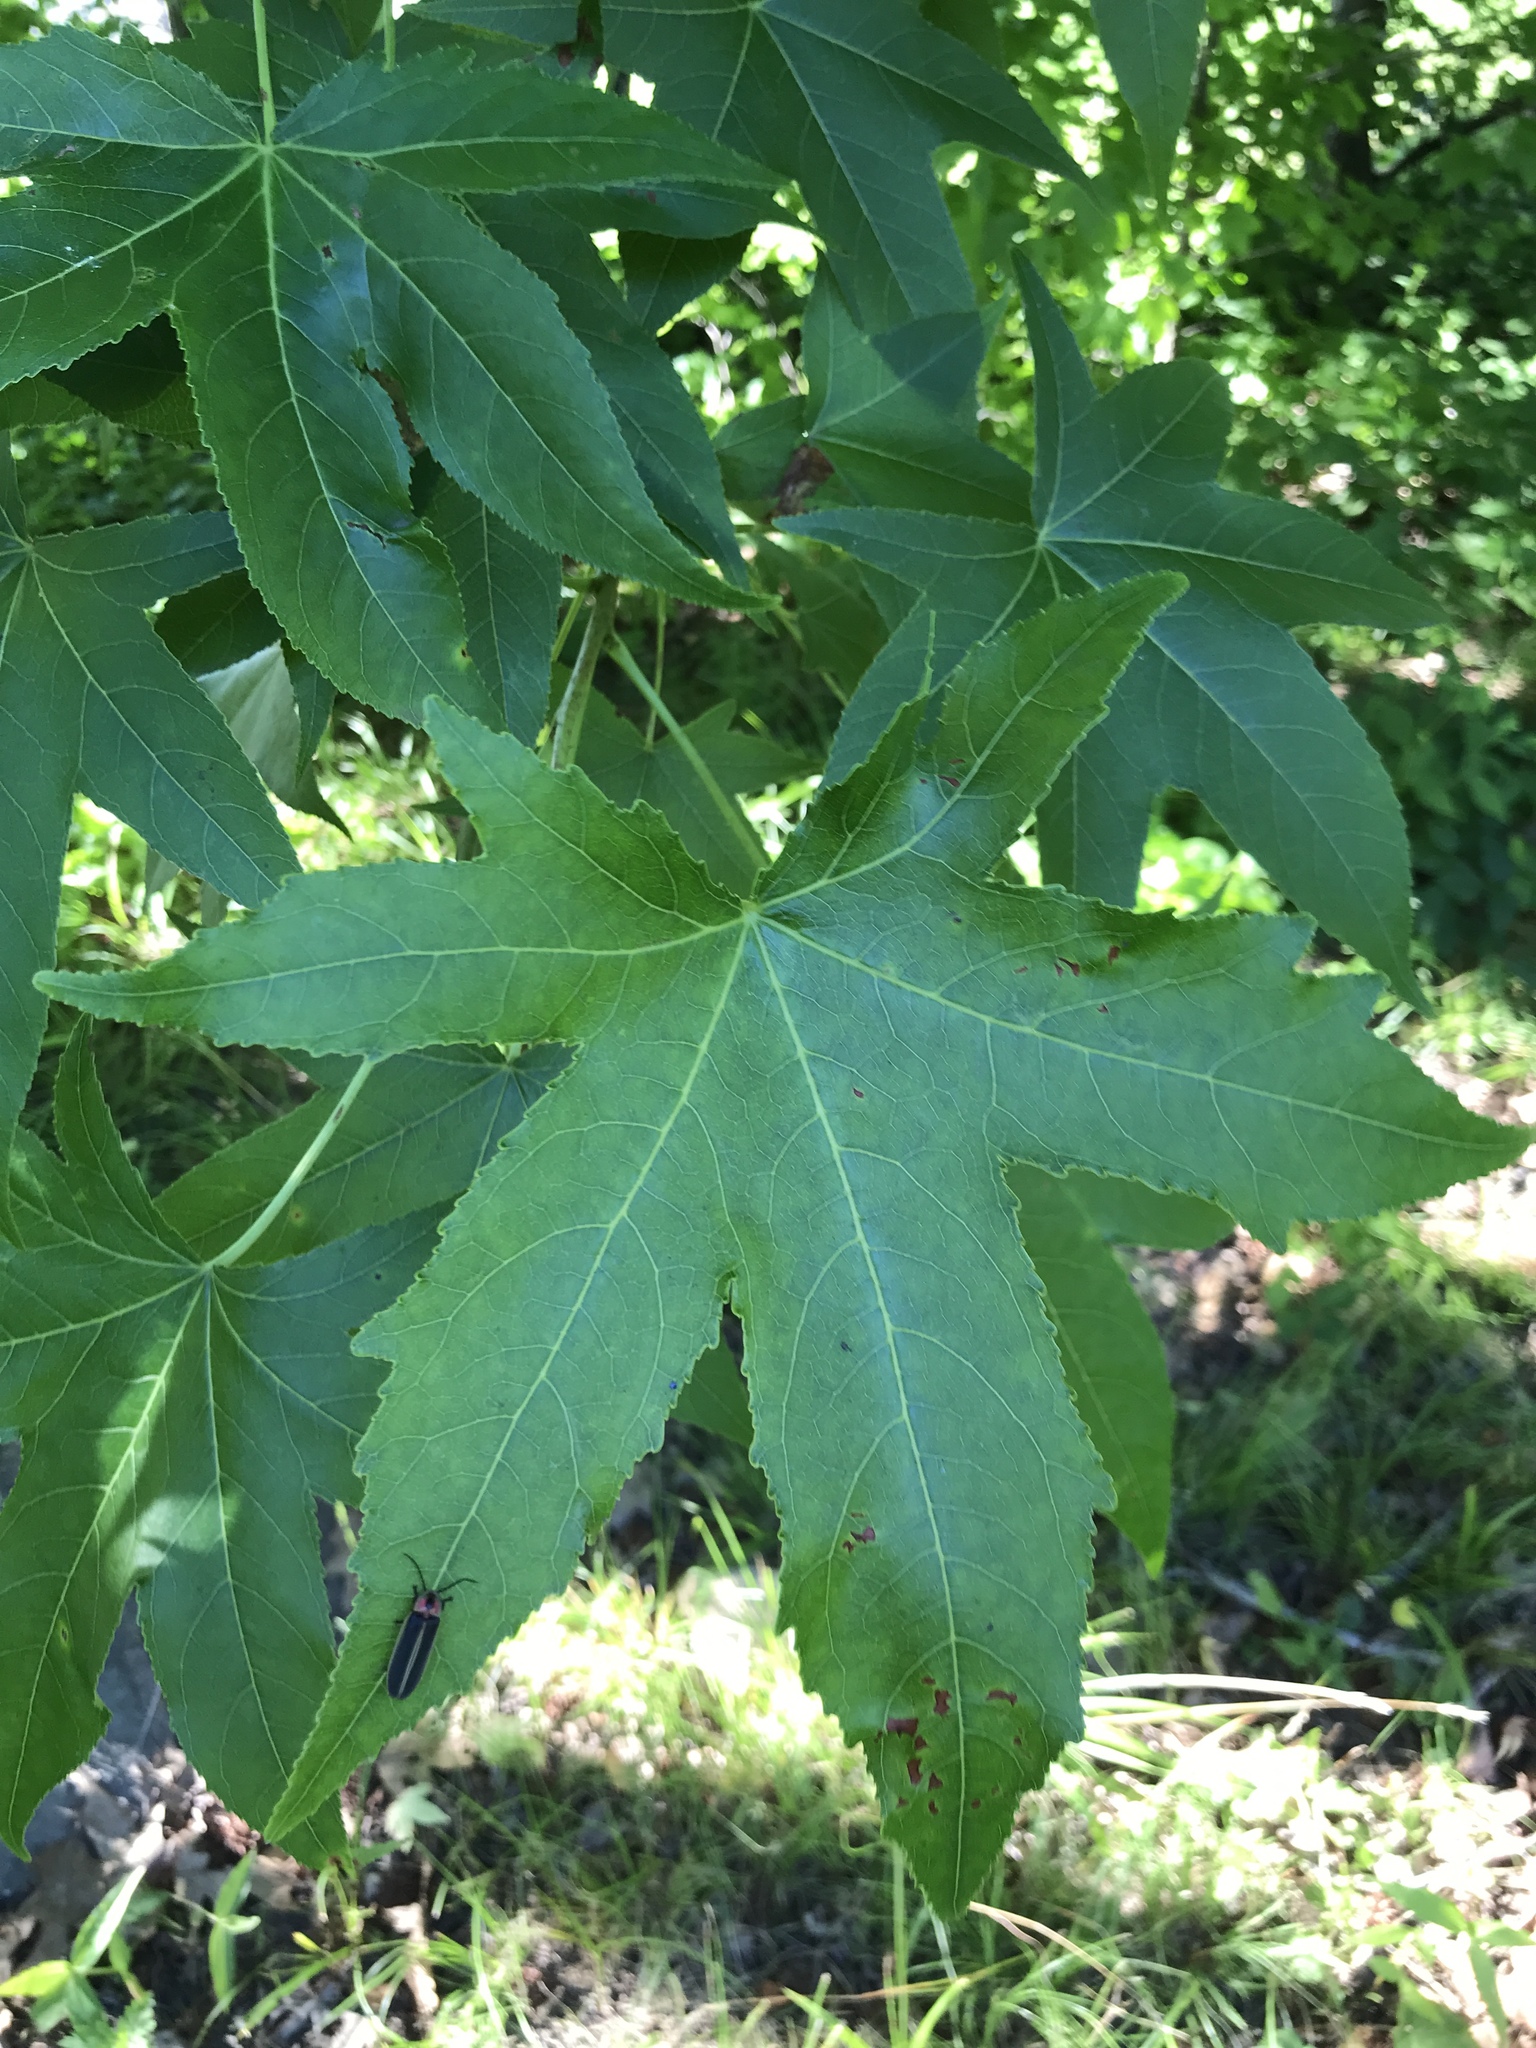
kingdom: Animalia
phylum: Arthropoda
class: Insecta
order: Coleoptera
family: Lampyridae
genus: Photinus
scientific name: Photinus pyralis
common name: Big dipper firefly
